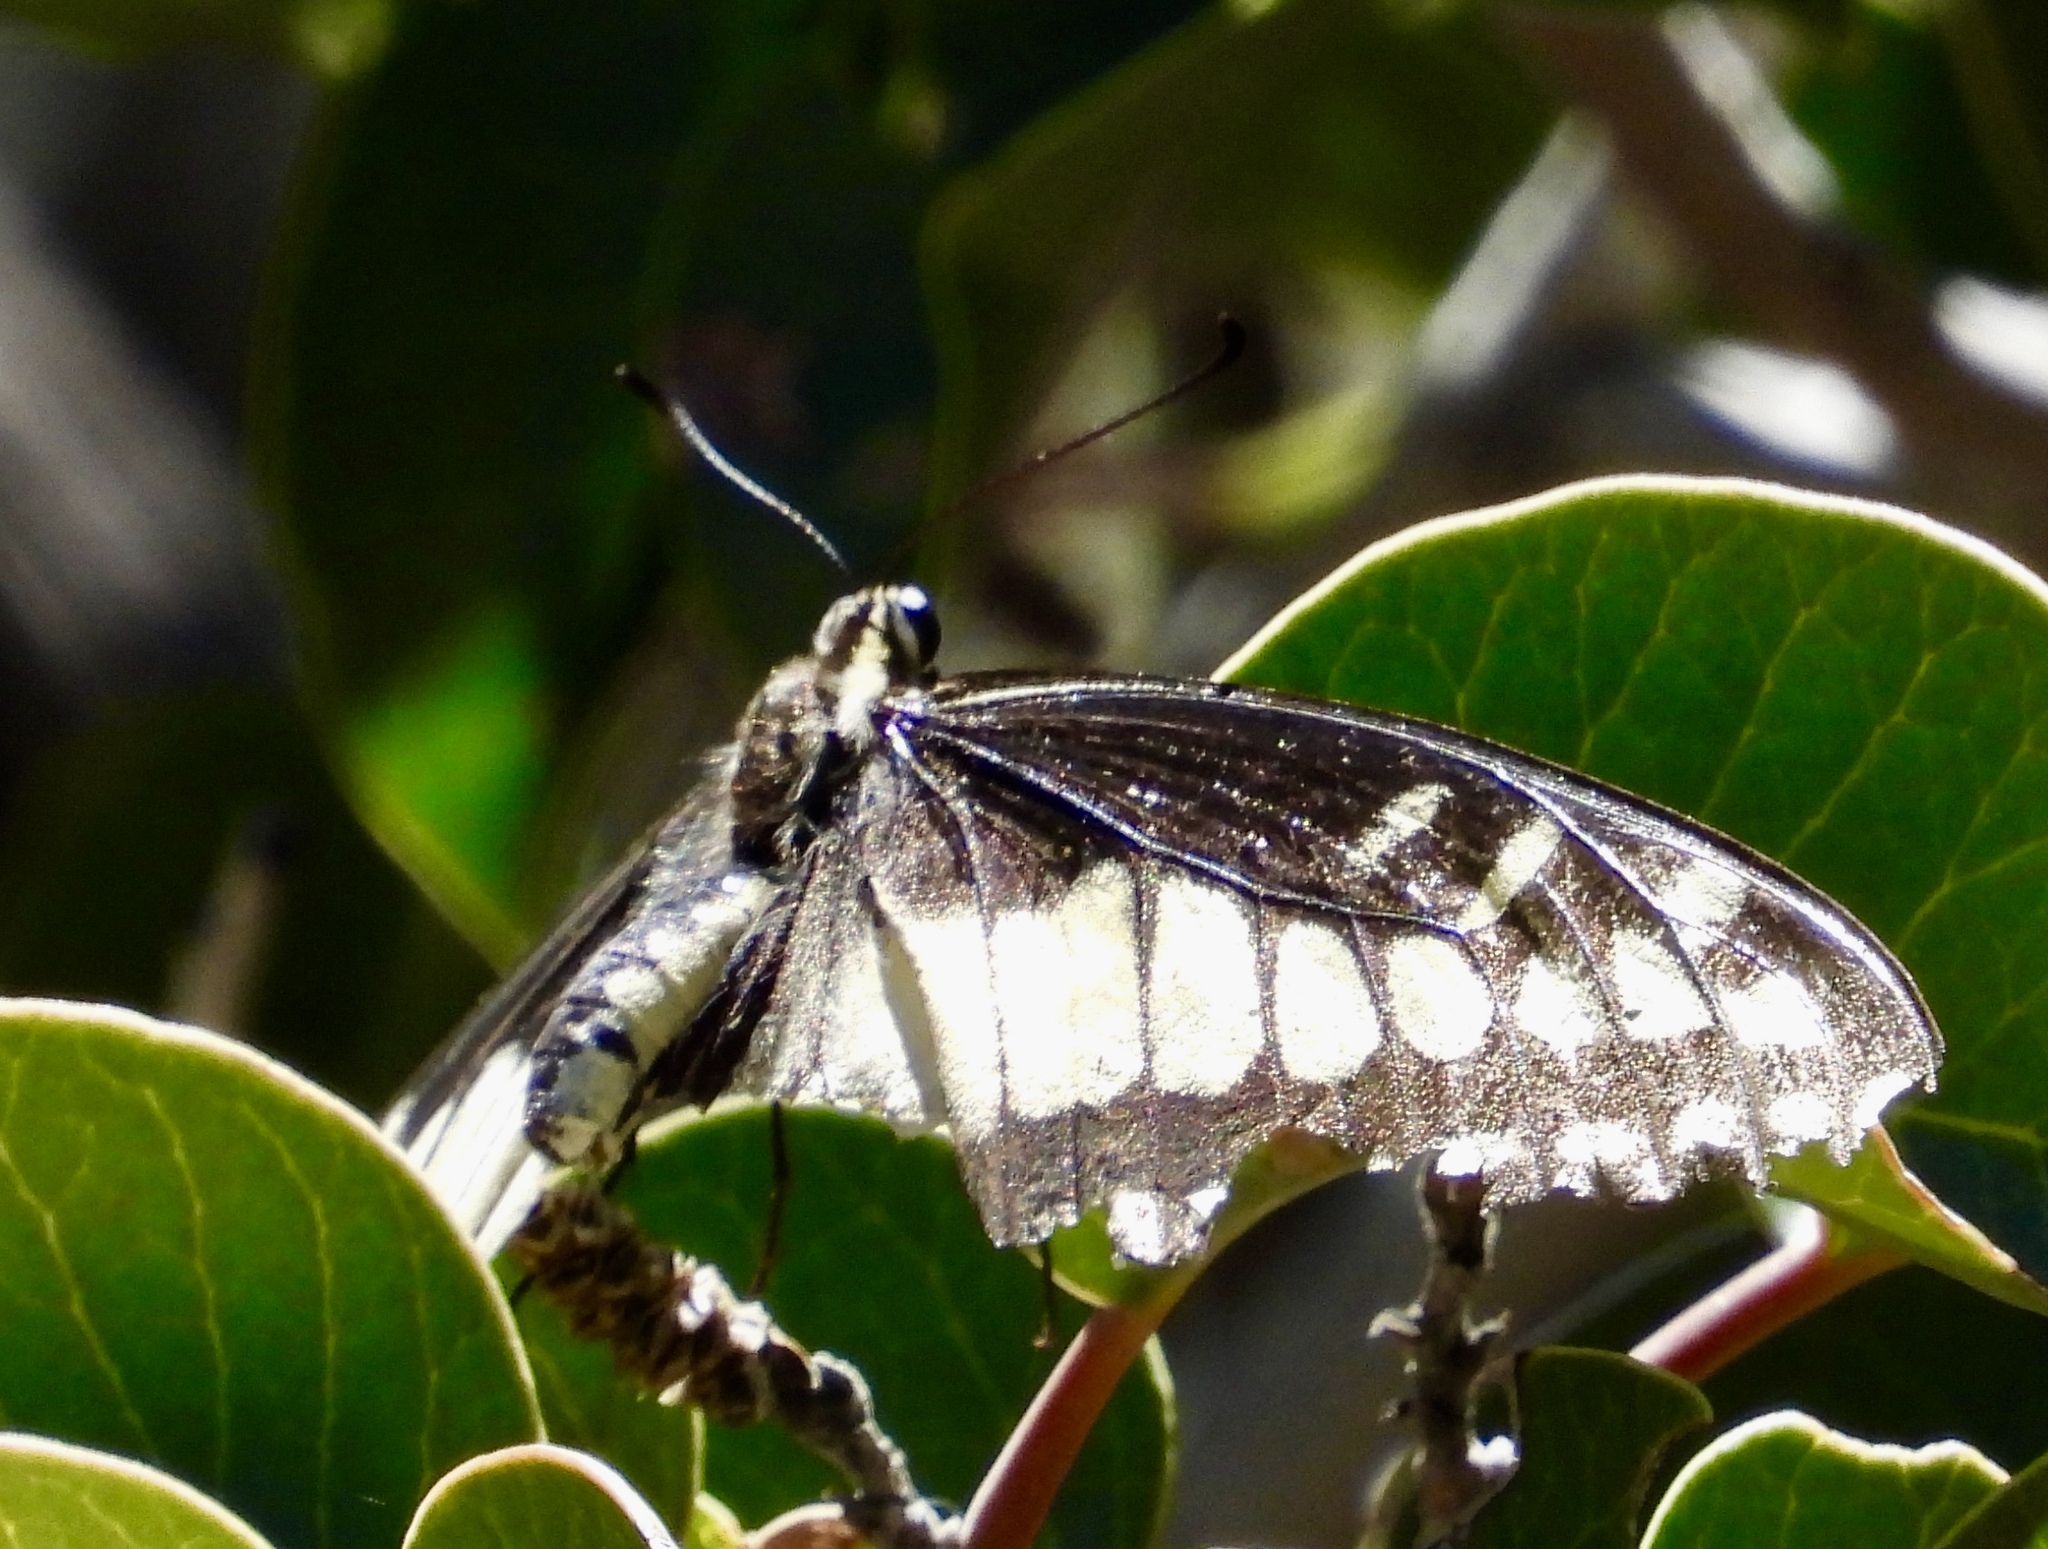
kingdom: Animalia
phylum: Arthropoda
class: Insecta
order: Lepidoptera
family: Papilionidae
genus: Papilio
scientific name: Papilio polyxenes
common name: Black swallowtail
